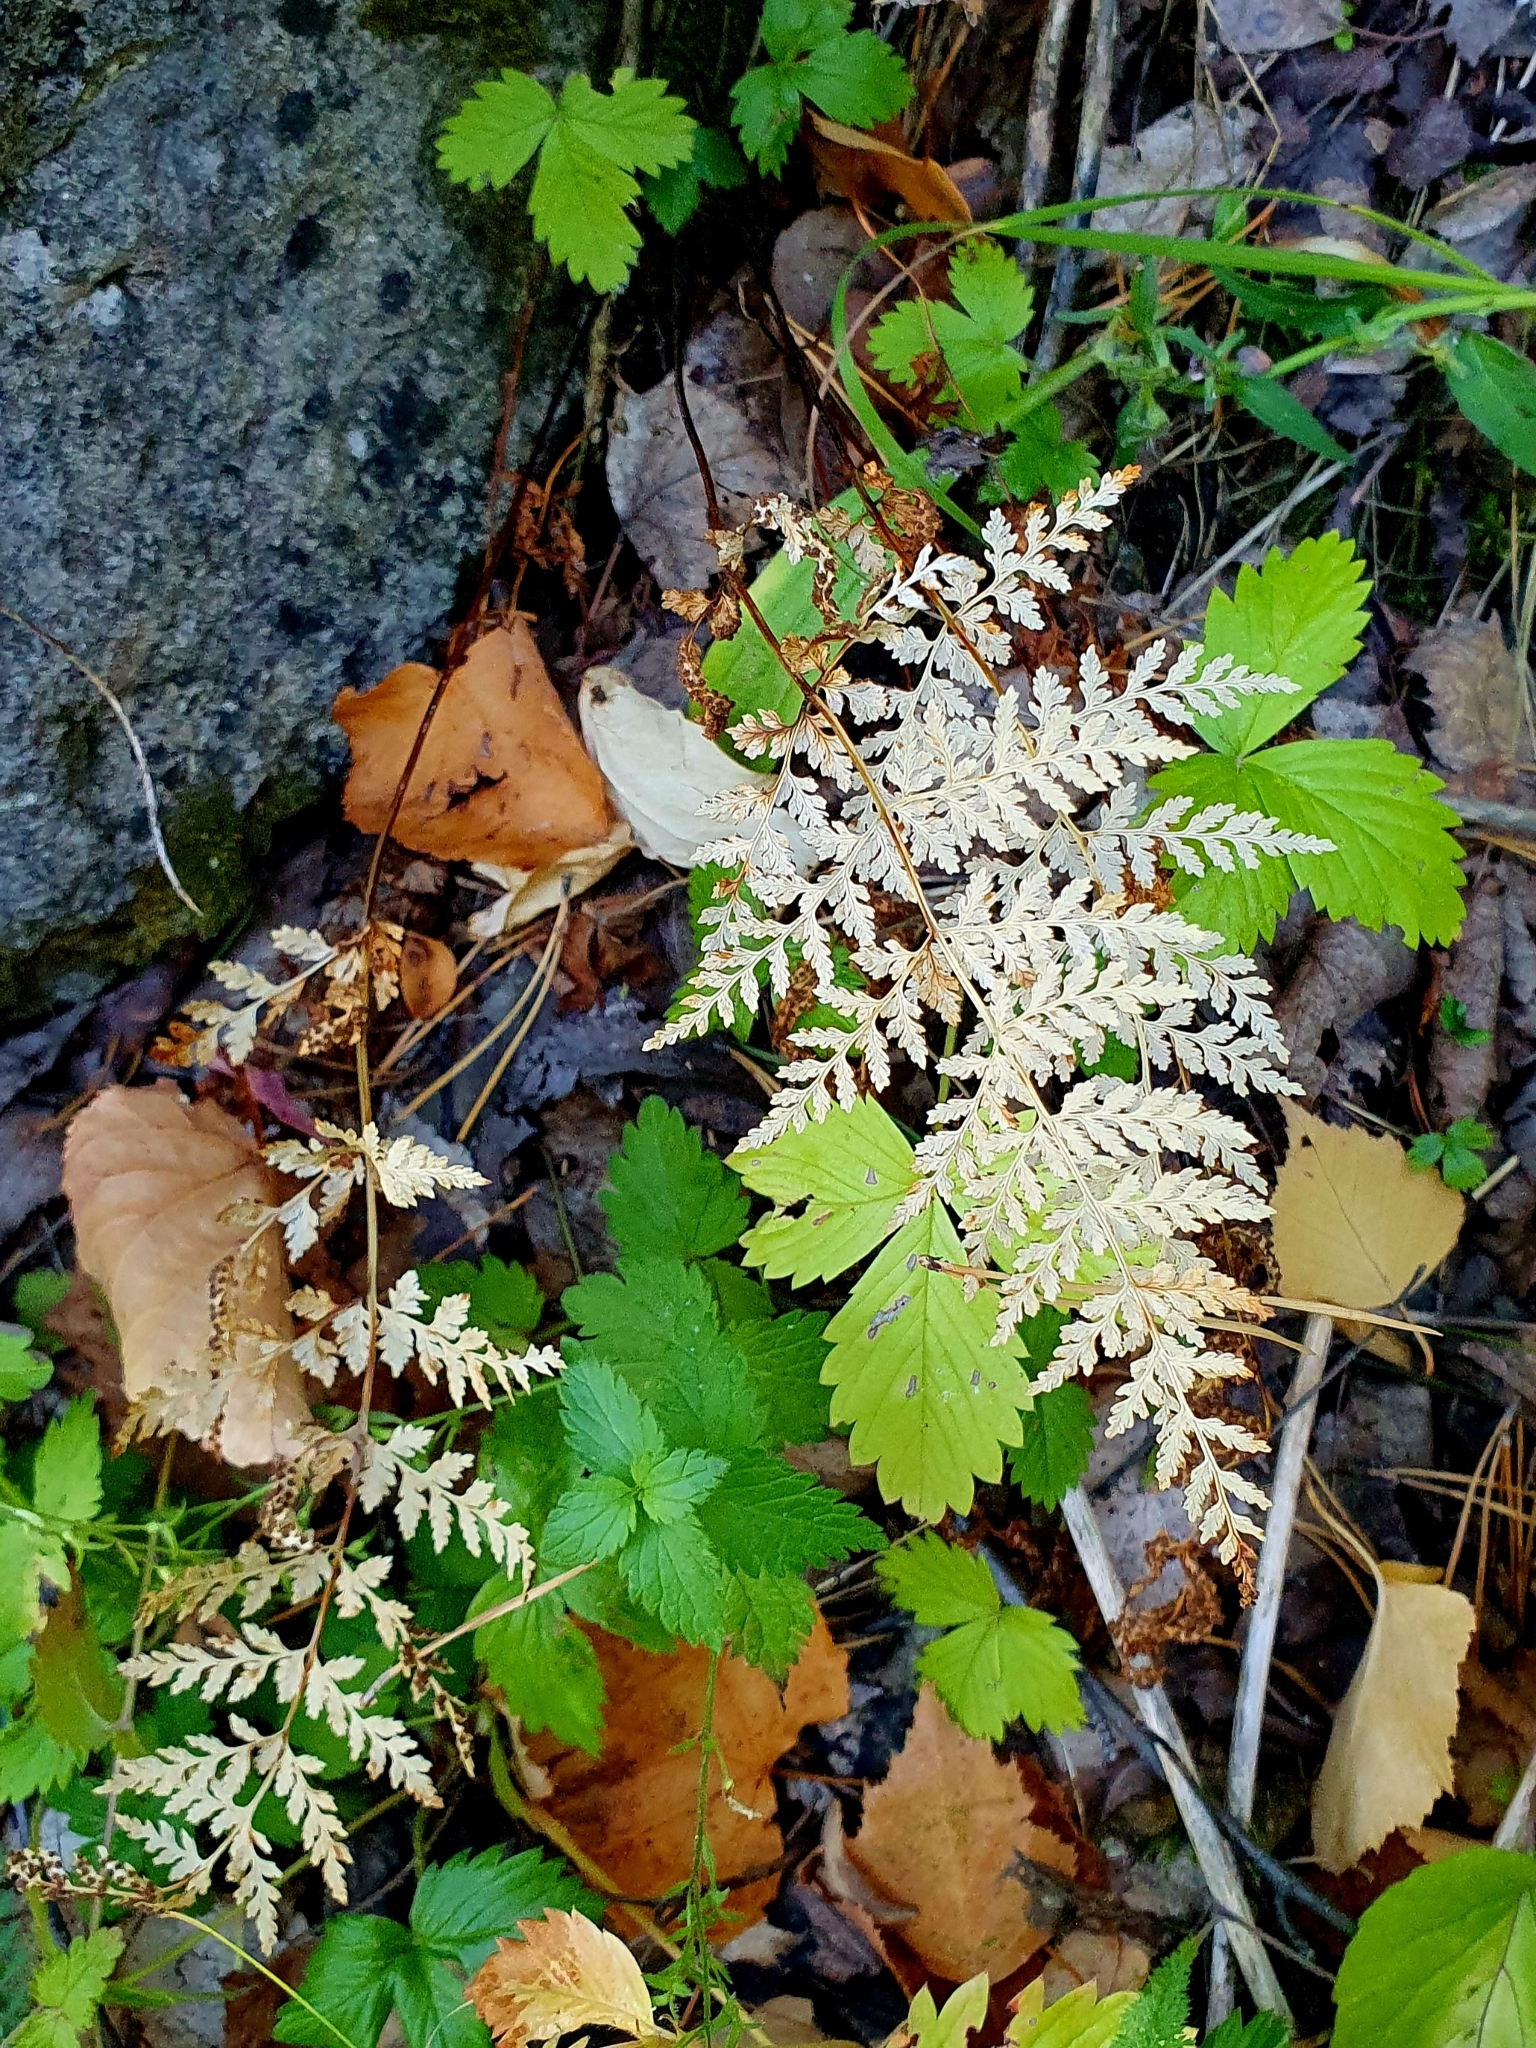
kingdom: Plantae
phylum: Tracheophyta
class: Polypodiopsida
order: Polypodiales
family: Cystopteridaceae
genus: Cystopteris
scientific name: Cystopteris fragilis
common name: Brittle bladder fern
